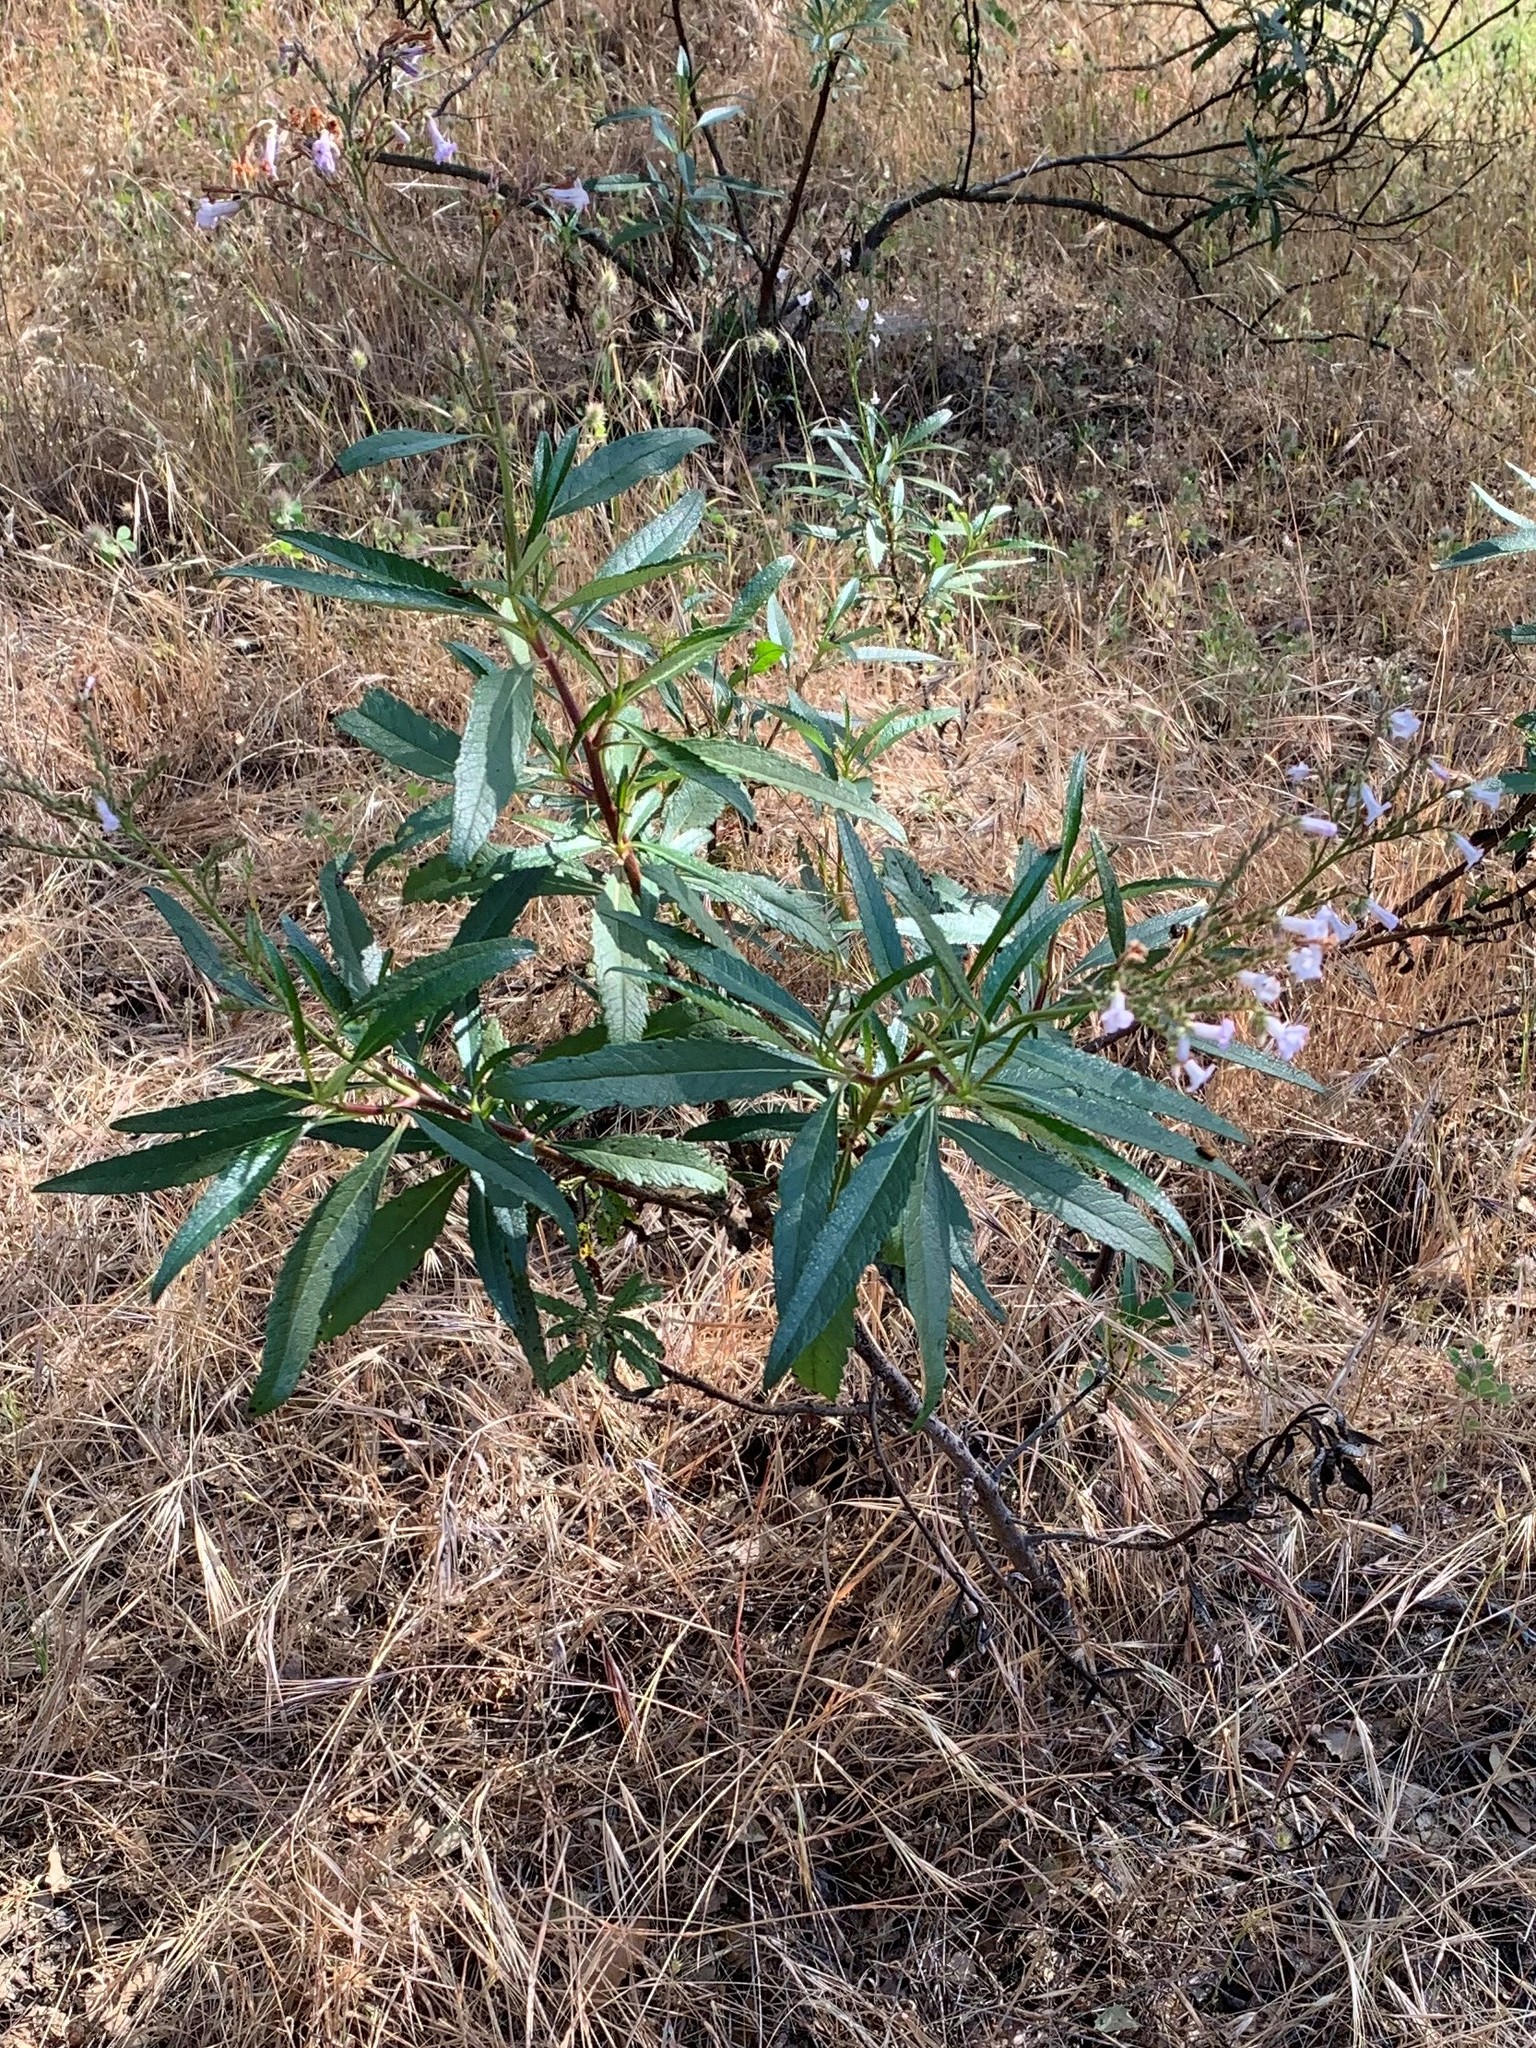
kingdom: Plantae
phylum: Tracheophyta
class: Magnoliopsida
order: Boraginales
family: Namaceae
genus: Eriodictyon
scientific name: Eriodictyon californicum
